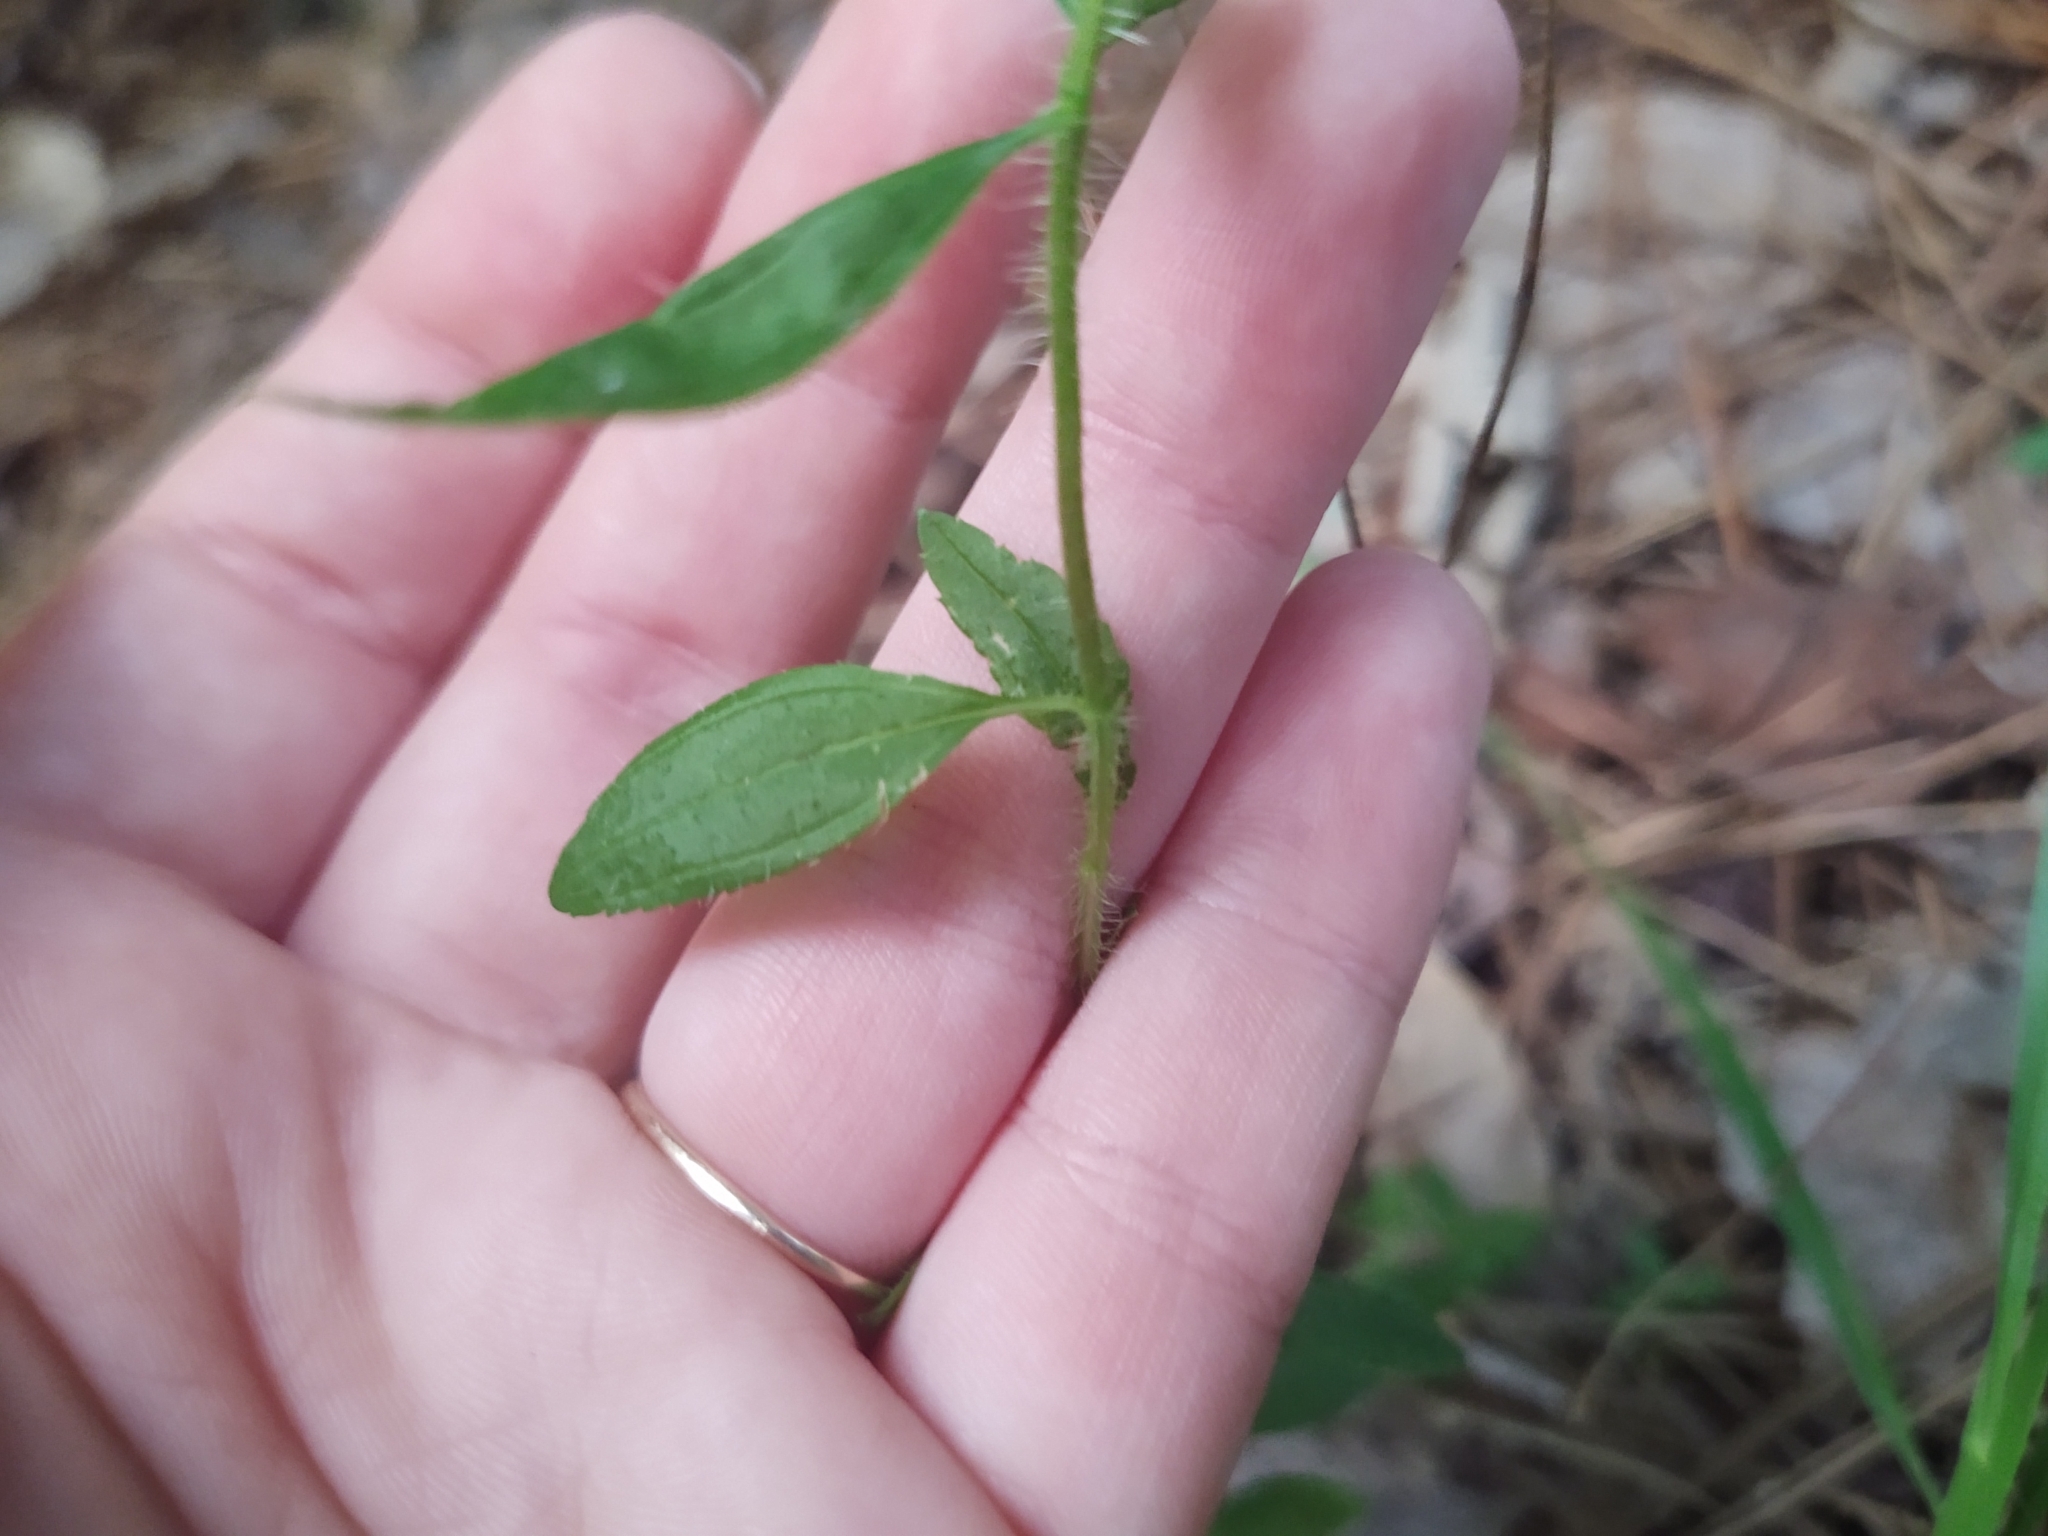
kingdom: Plantae
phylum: Tracheophyta
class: Magnoliopsida
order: Myrtales
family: Melastomataceae
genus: Rhexia
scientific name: Rhexia mariana
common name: Dull meadow-pitcher
